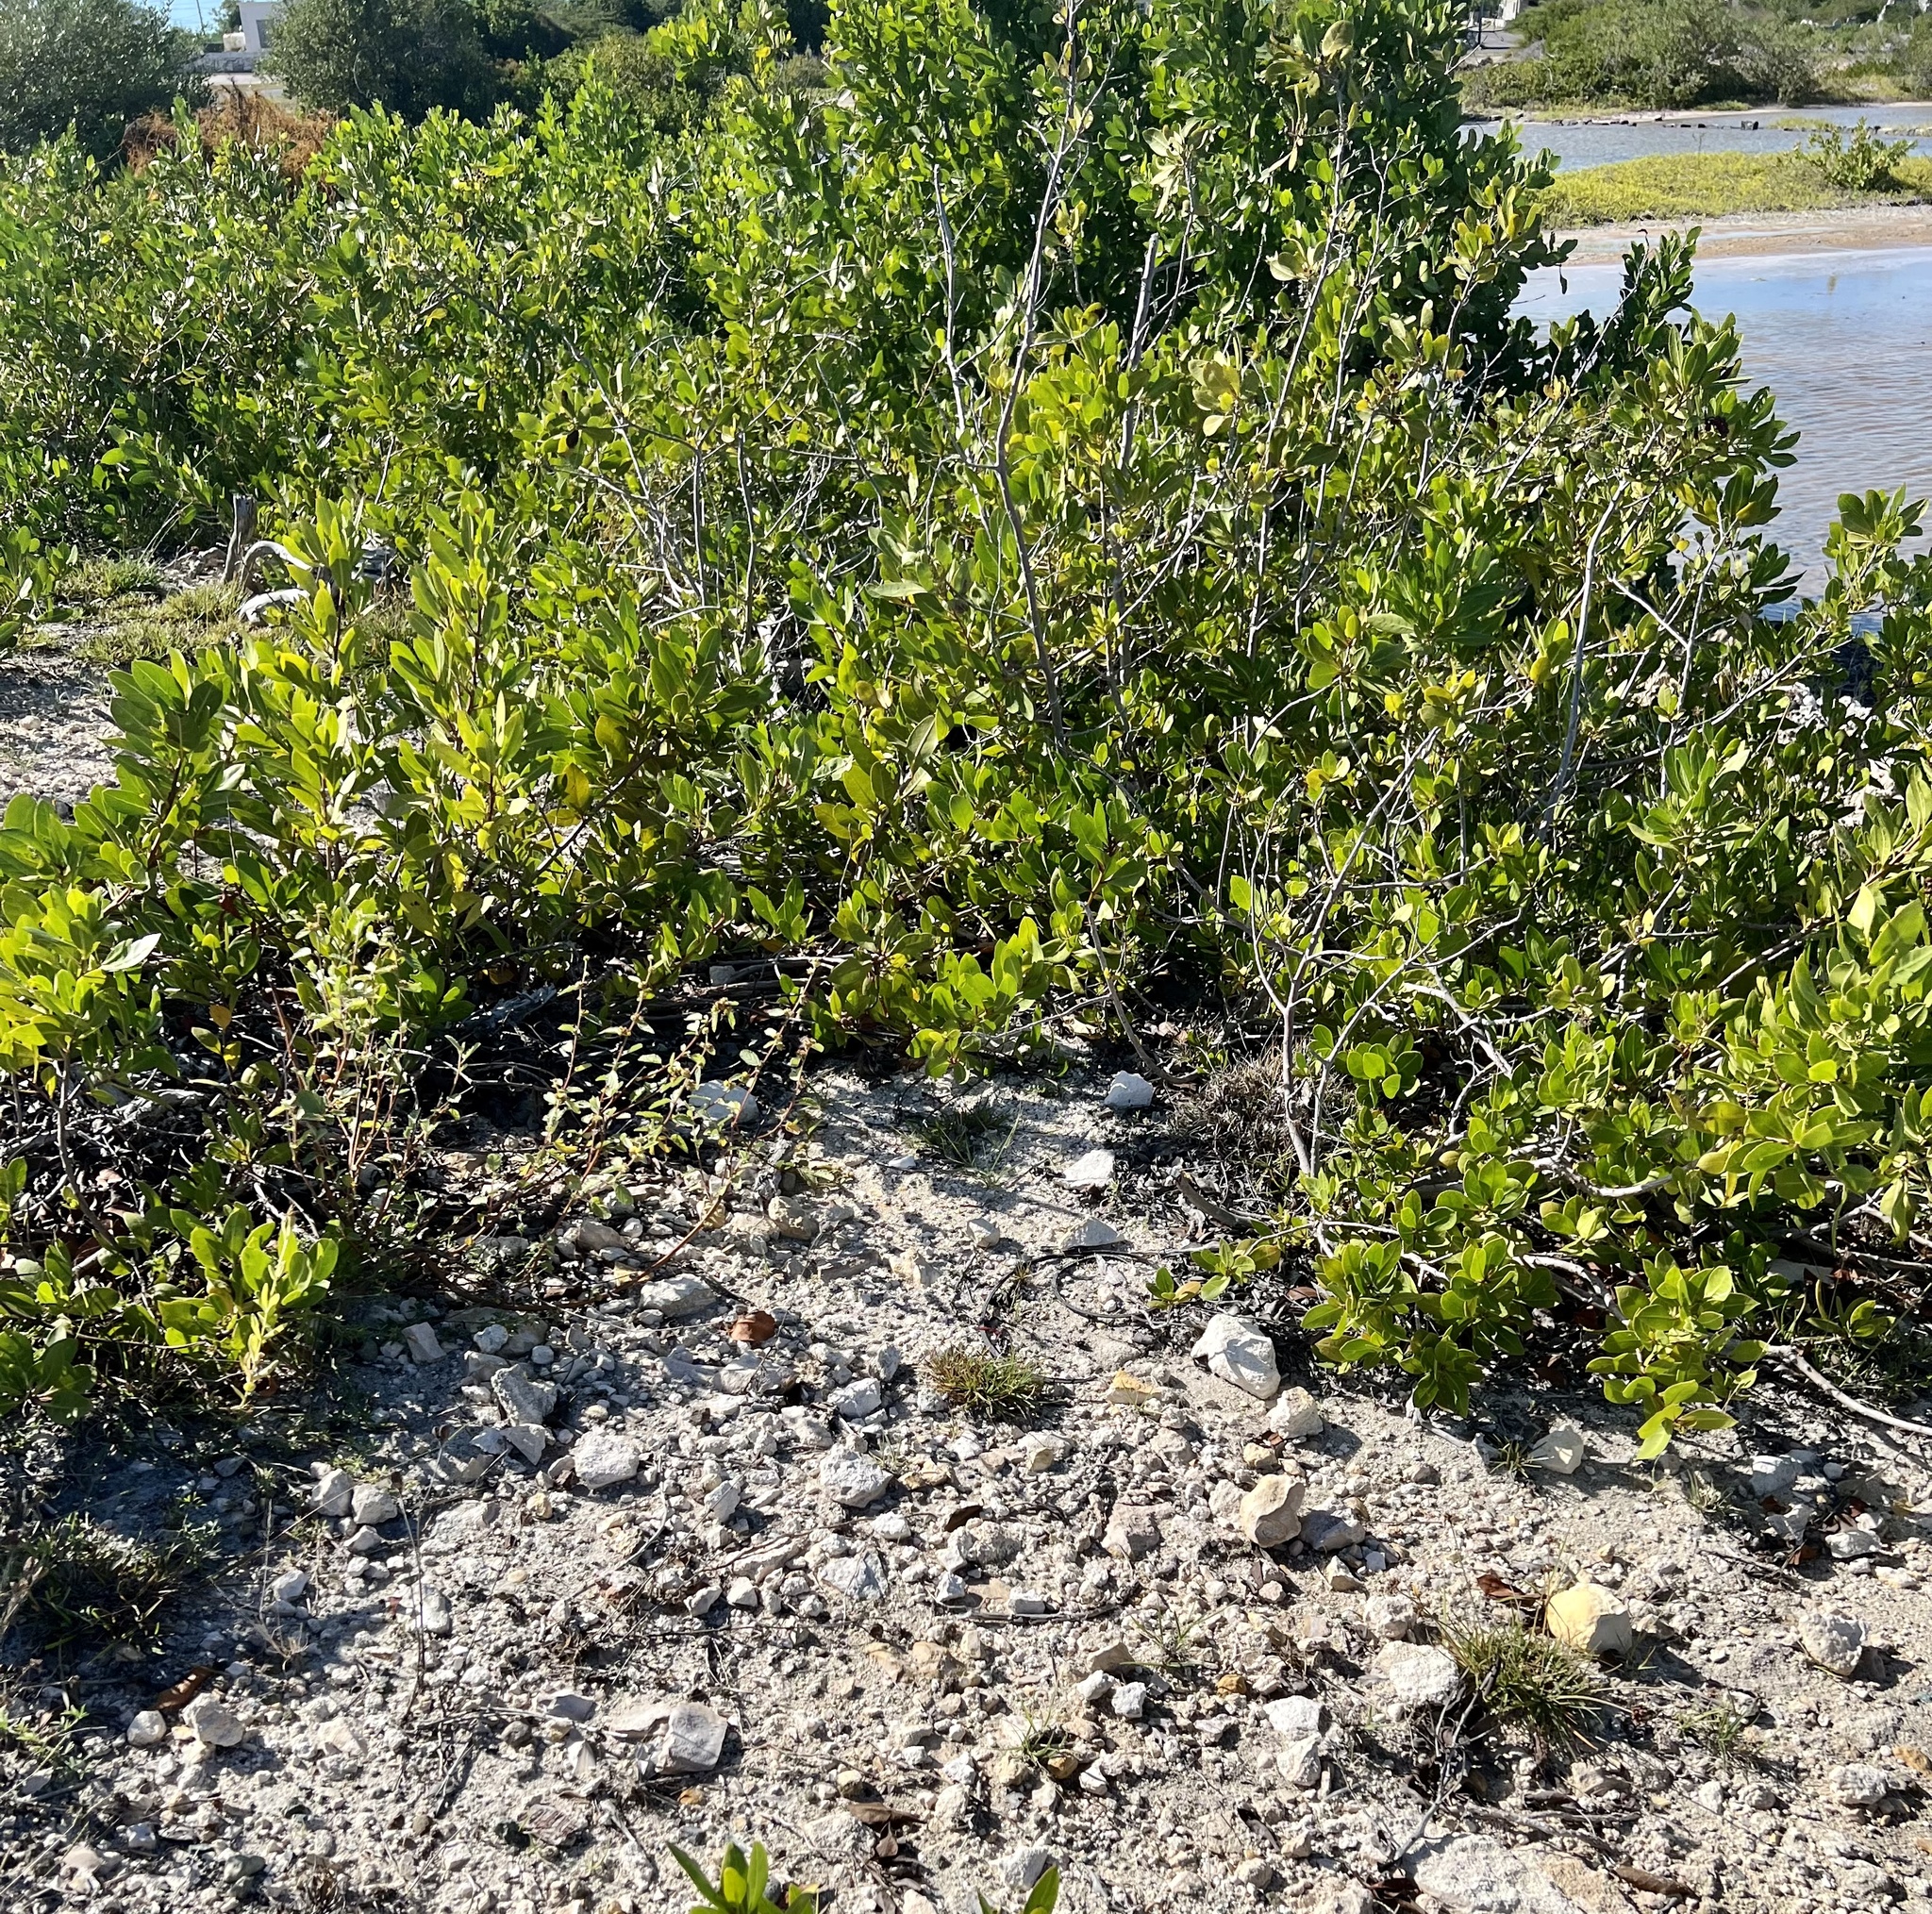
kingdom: Plantae
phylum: Tracheophyta
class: Magnoliopsida
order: Myrtales
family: Combretaceae
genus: Conocarpus
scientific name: Conocarpus erectus
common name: Button mangrove
